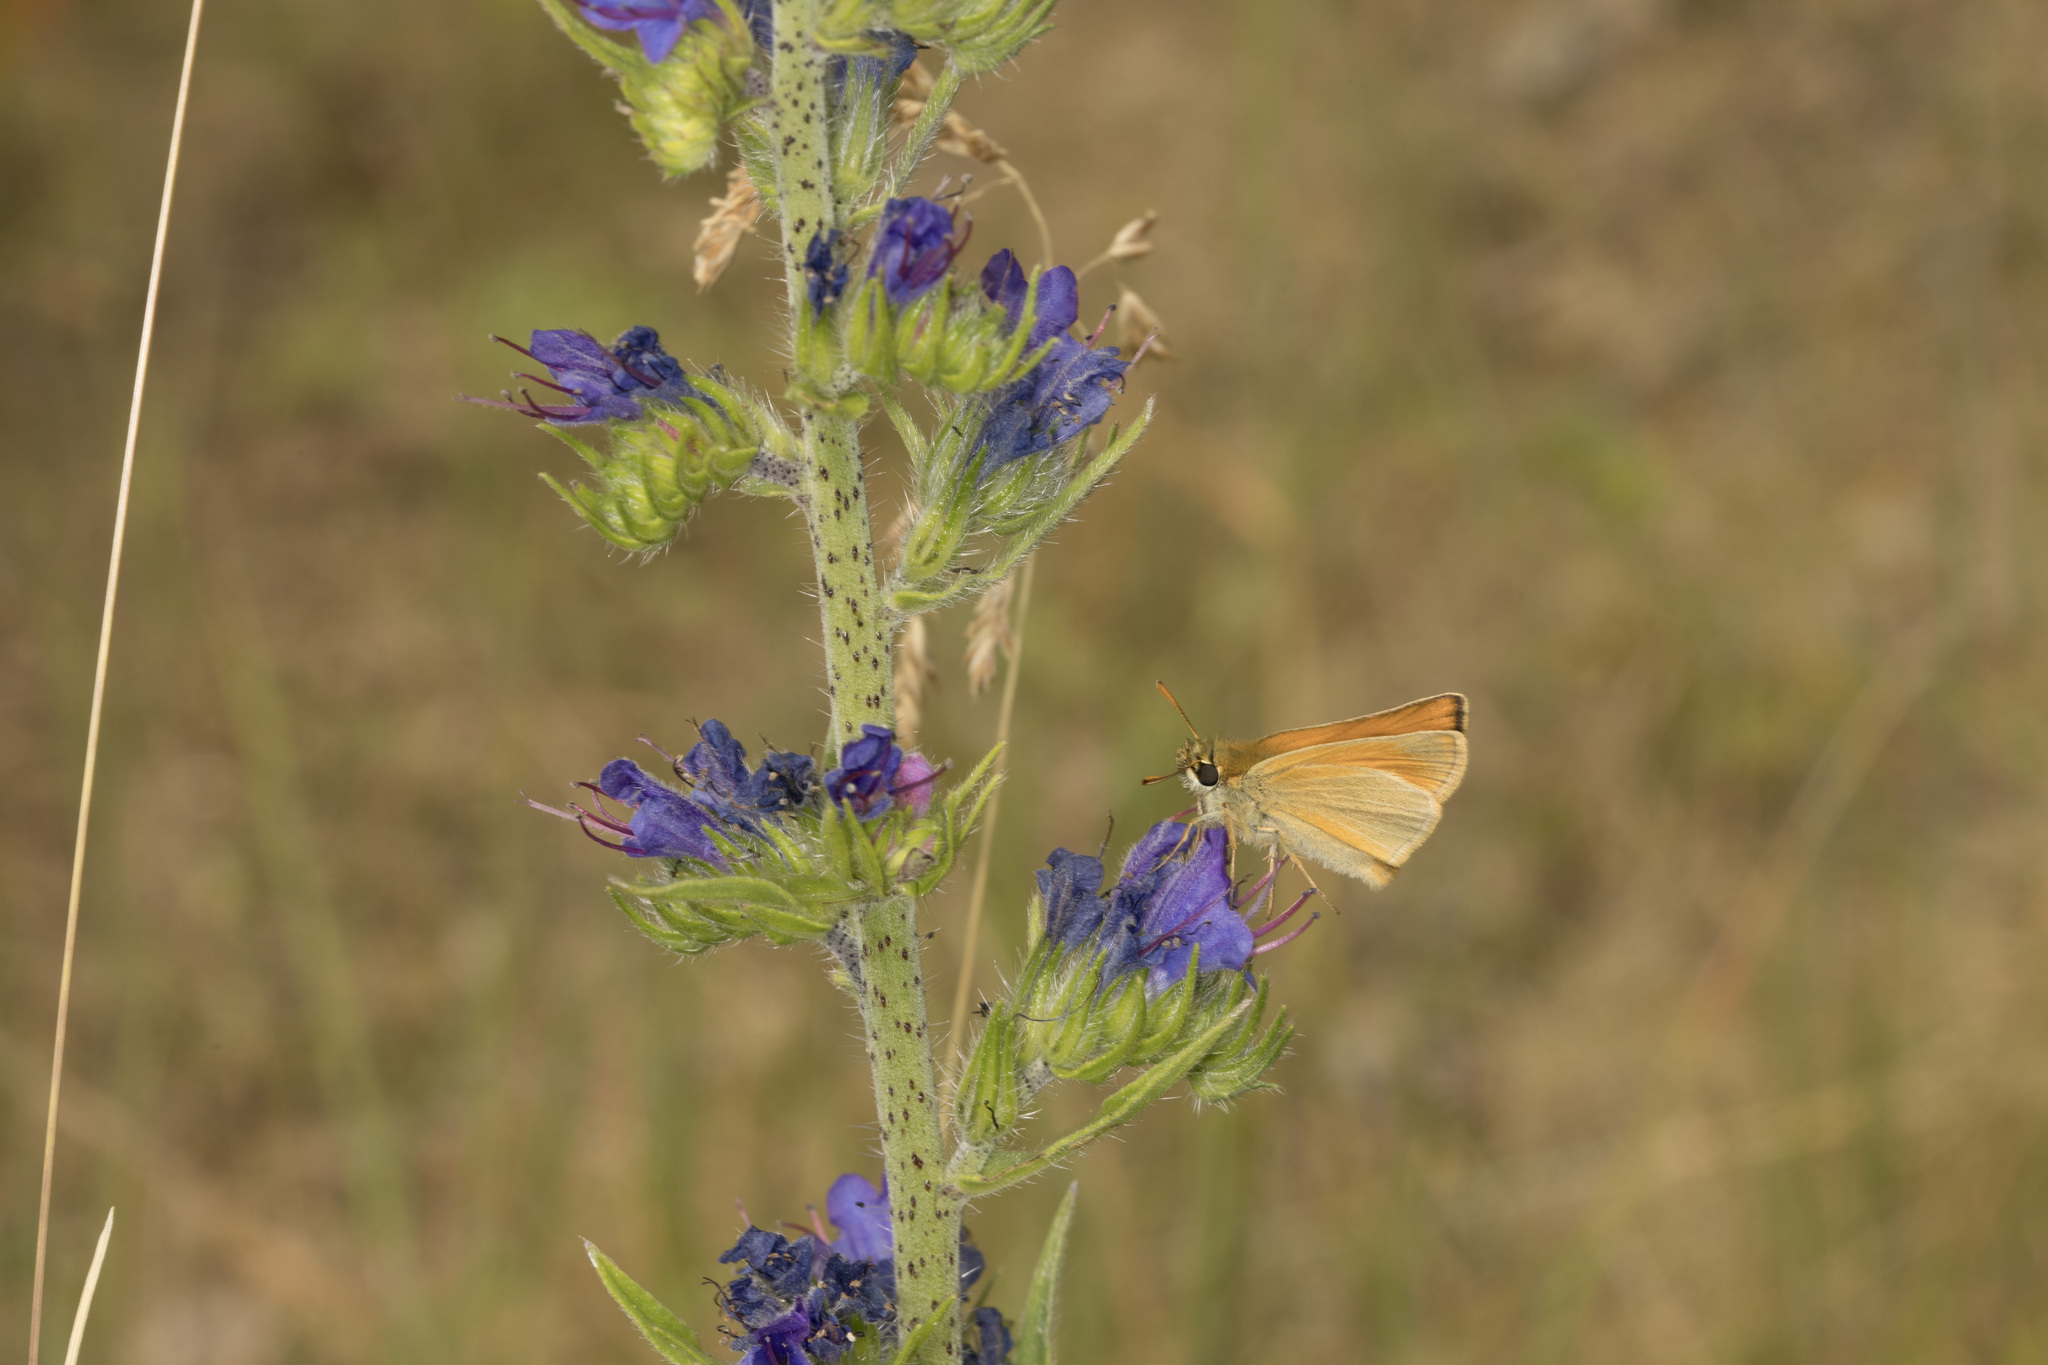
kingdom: Animalia
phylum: Arthropoda
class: Insecta
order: Lepidoptera
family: Hesperiidae
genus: Thymelicus
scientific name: Thymelicus sylvestris
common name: Small skipper
